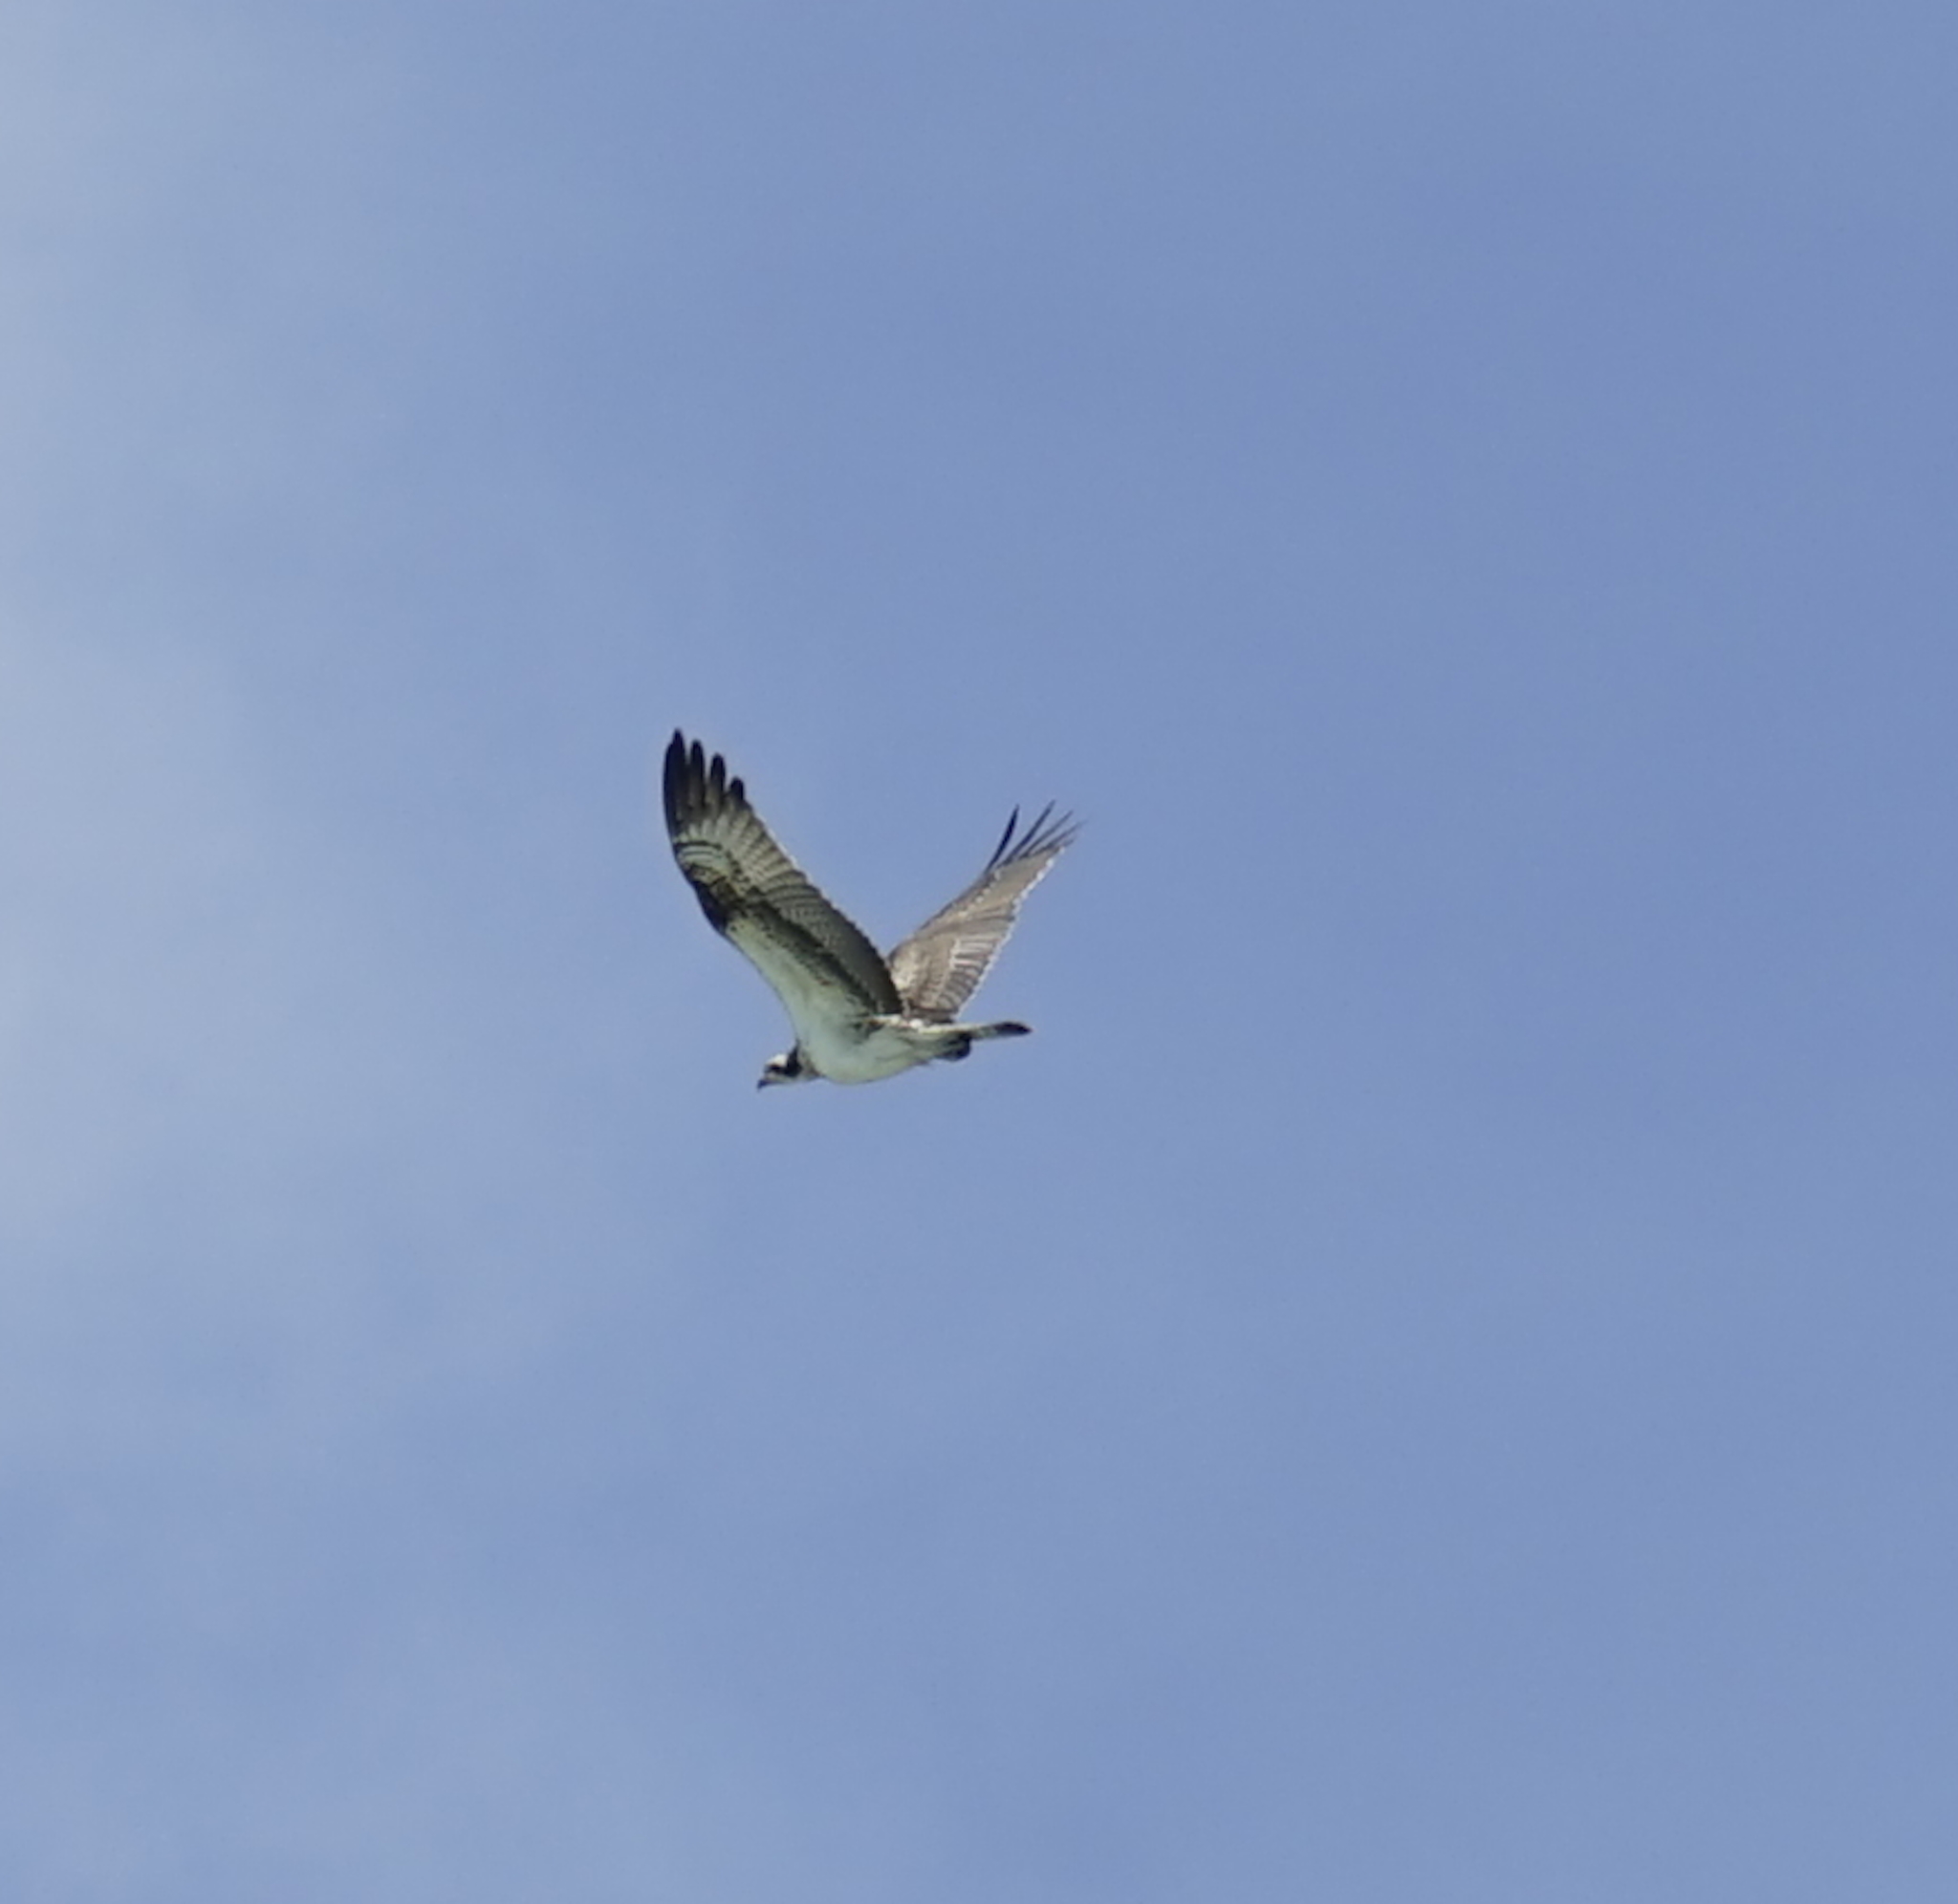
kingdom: Animalia
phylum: Chordata
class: Aves
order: Accipitriformes
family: Pandionidae
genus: Pandion
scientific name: Pandion haliaetus
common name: Osprey
